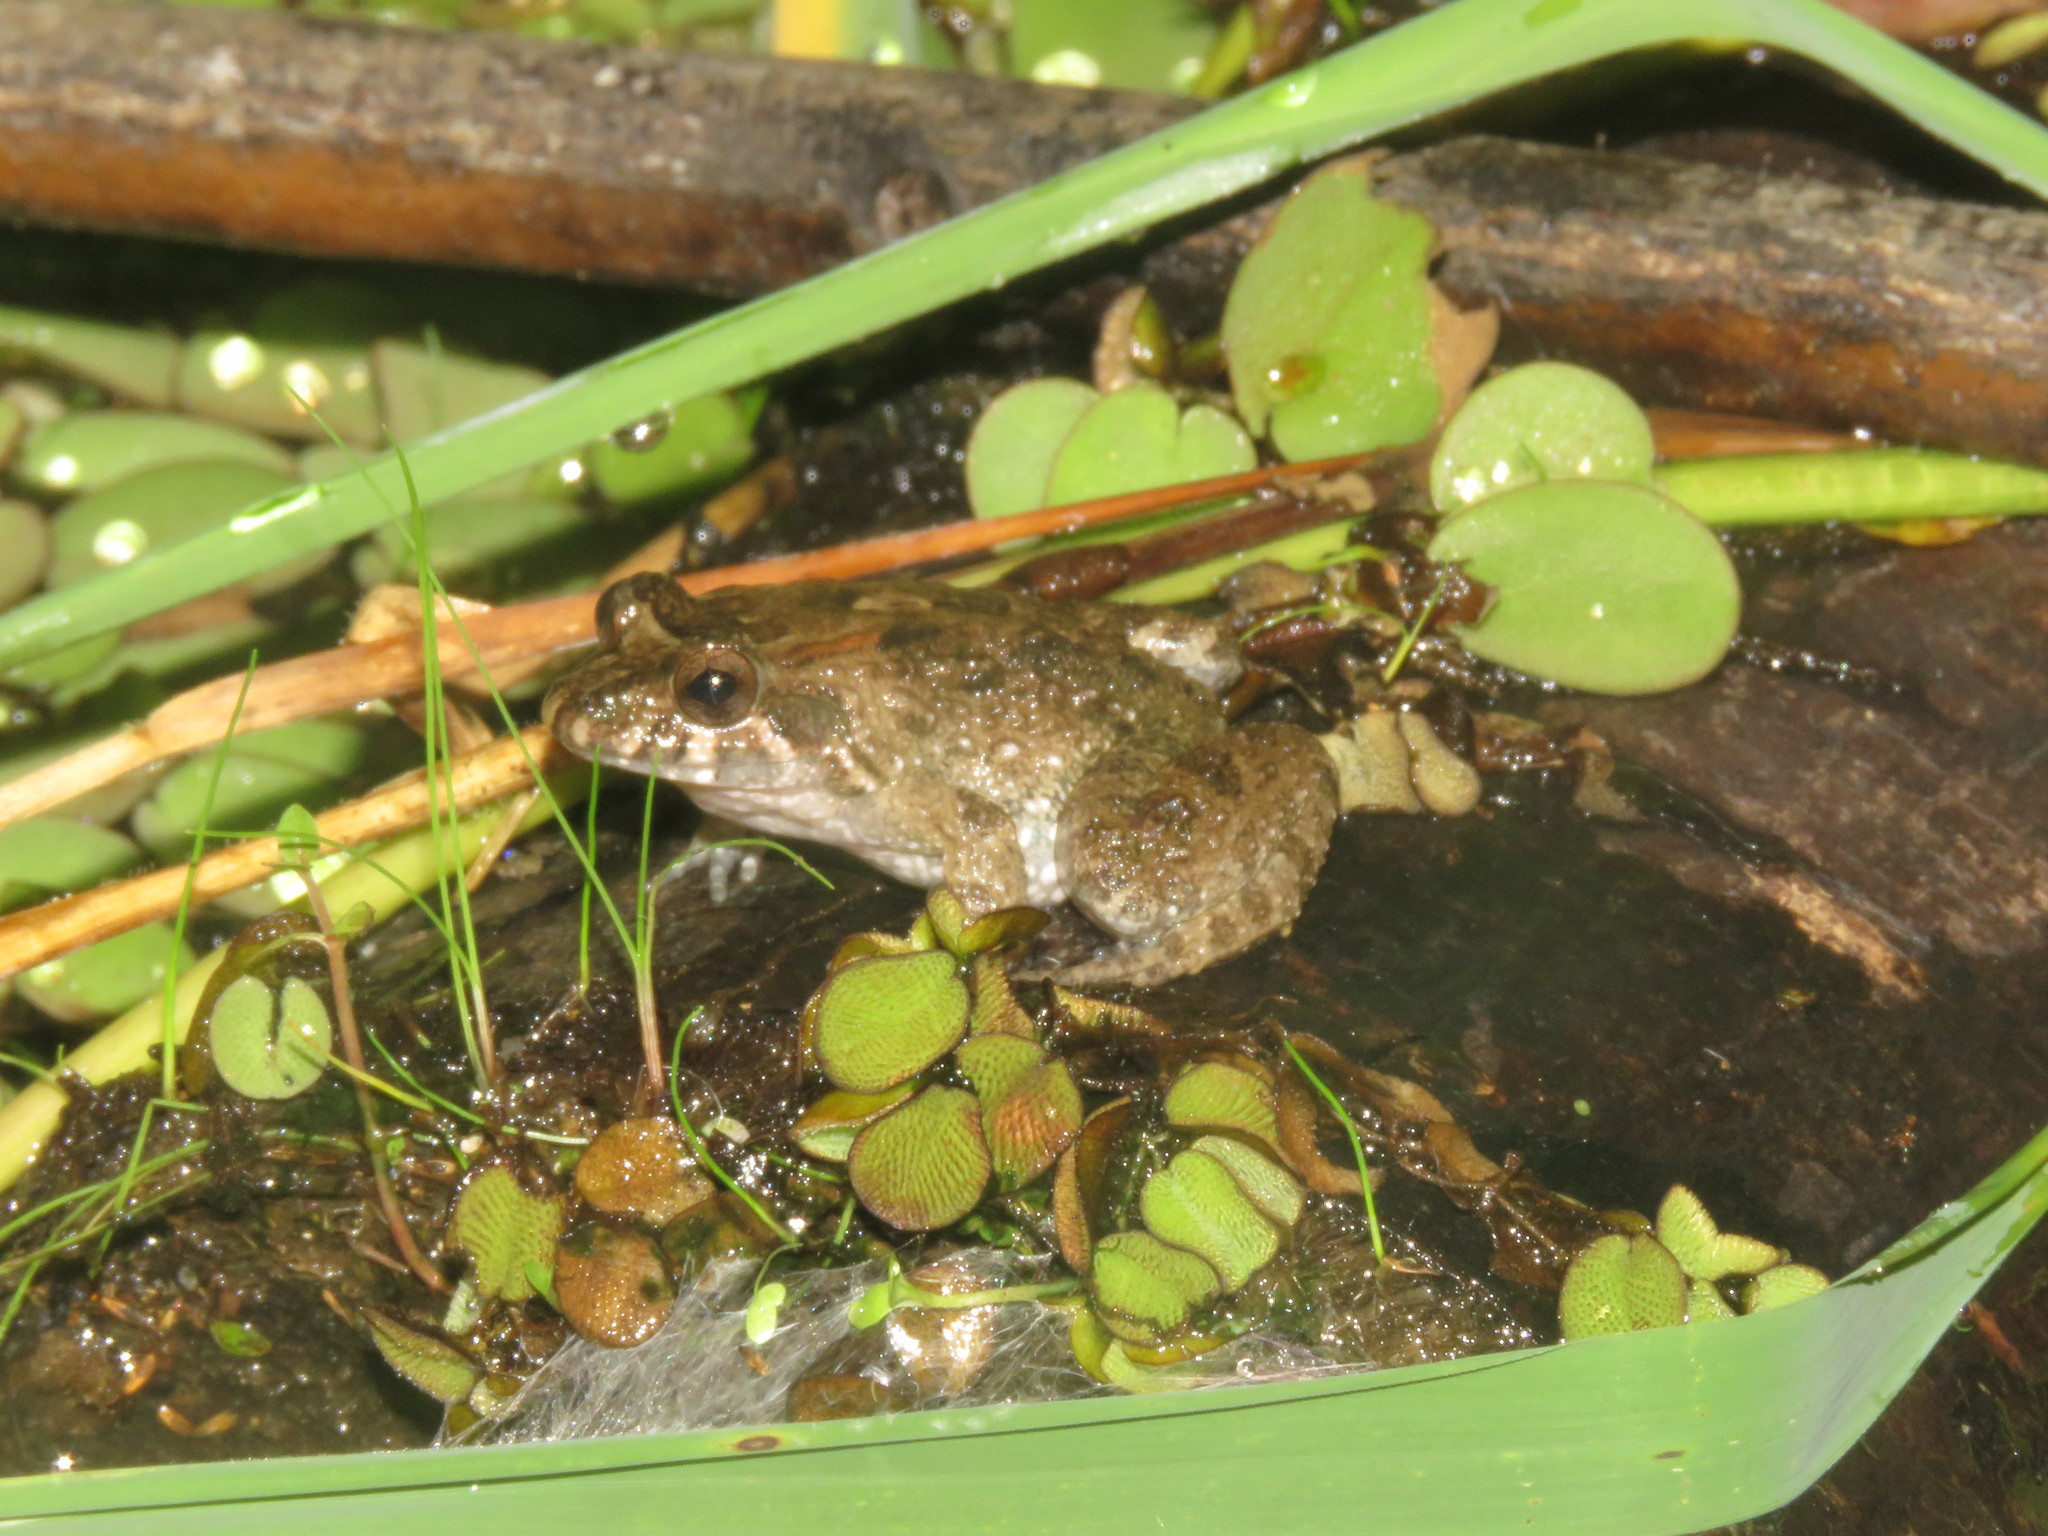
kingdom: Animalia
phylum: Chordata
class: Amphibia
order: Anura
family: Leptodactylidae
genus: Leptodactylus
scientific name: Leptodactylus petersii
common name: Peters' thin-toed frog
